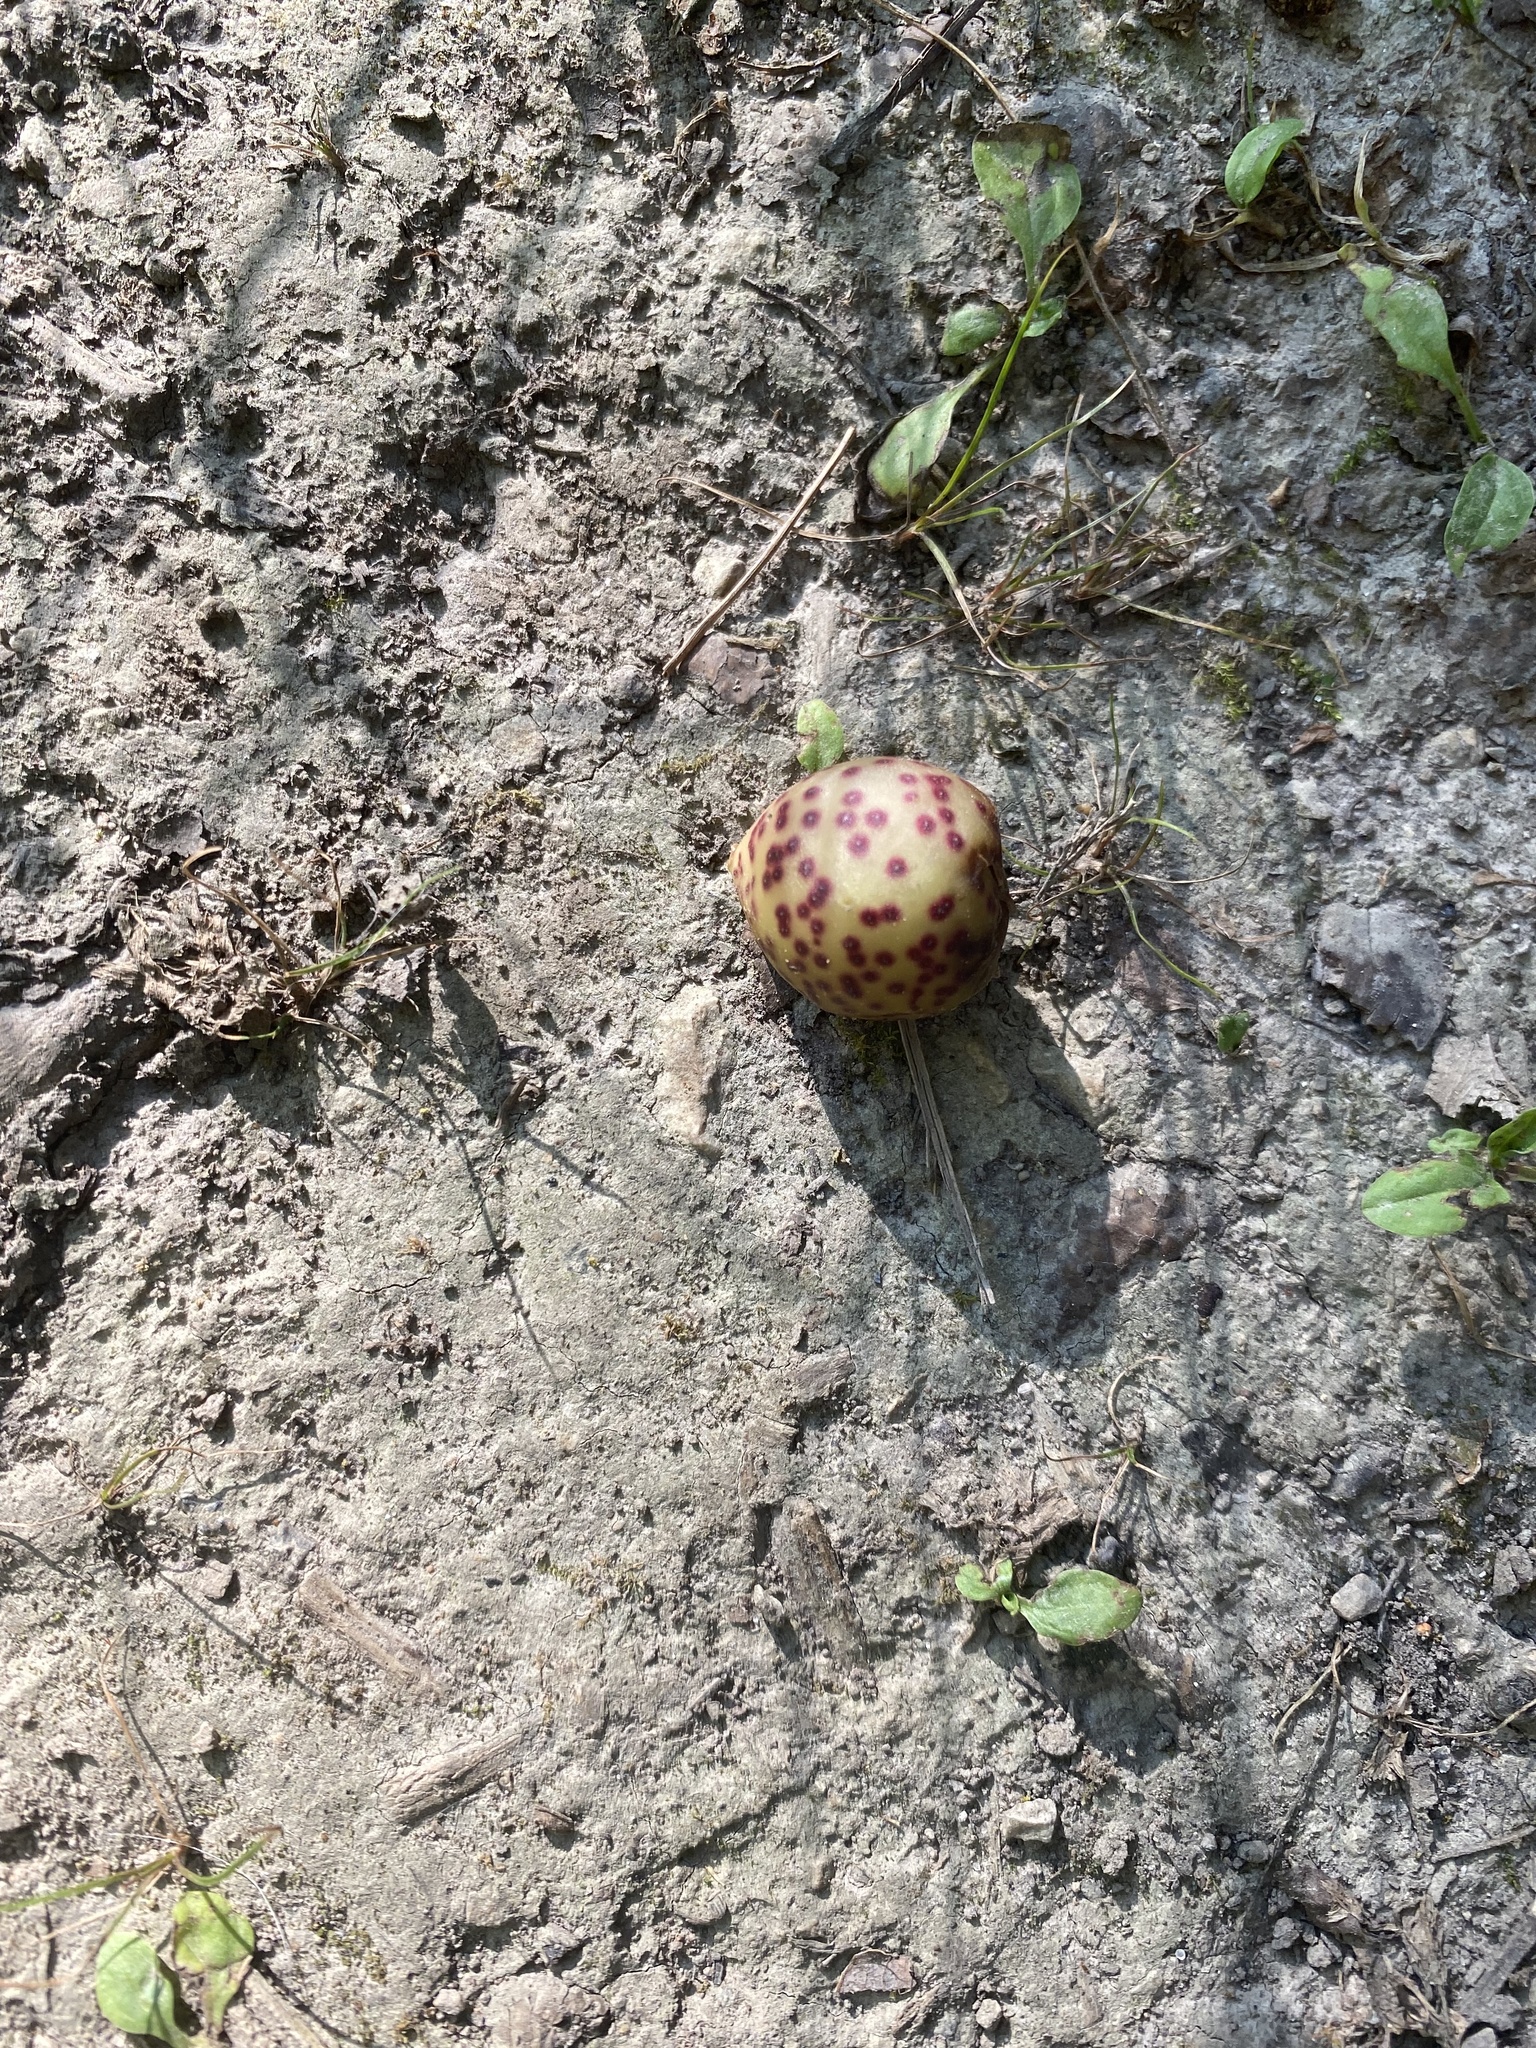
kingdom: Animalia
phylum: Arthropoda
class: Insecta
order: Hymenoptera
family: Cynipidae
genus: Amphibolips
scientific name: Amphibolips
